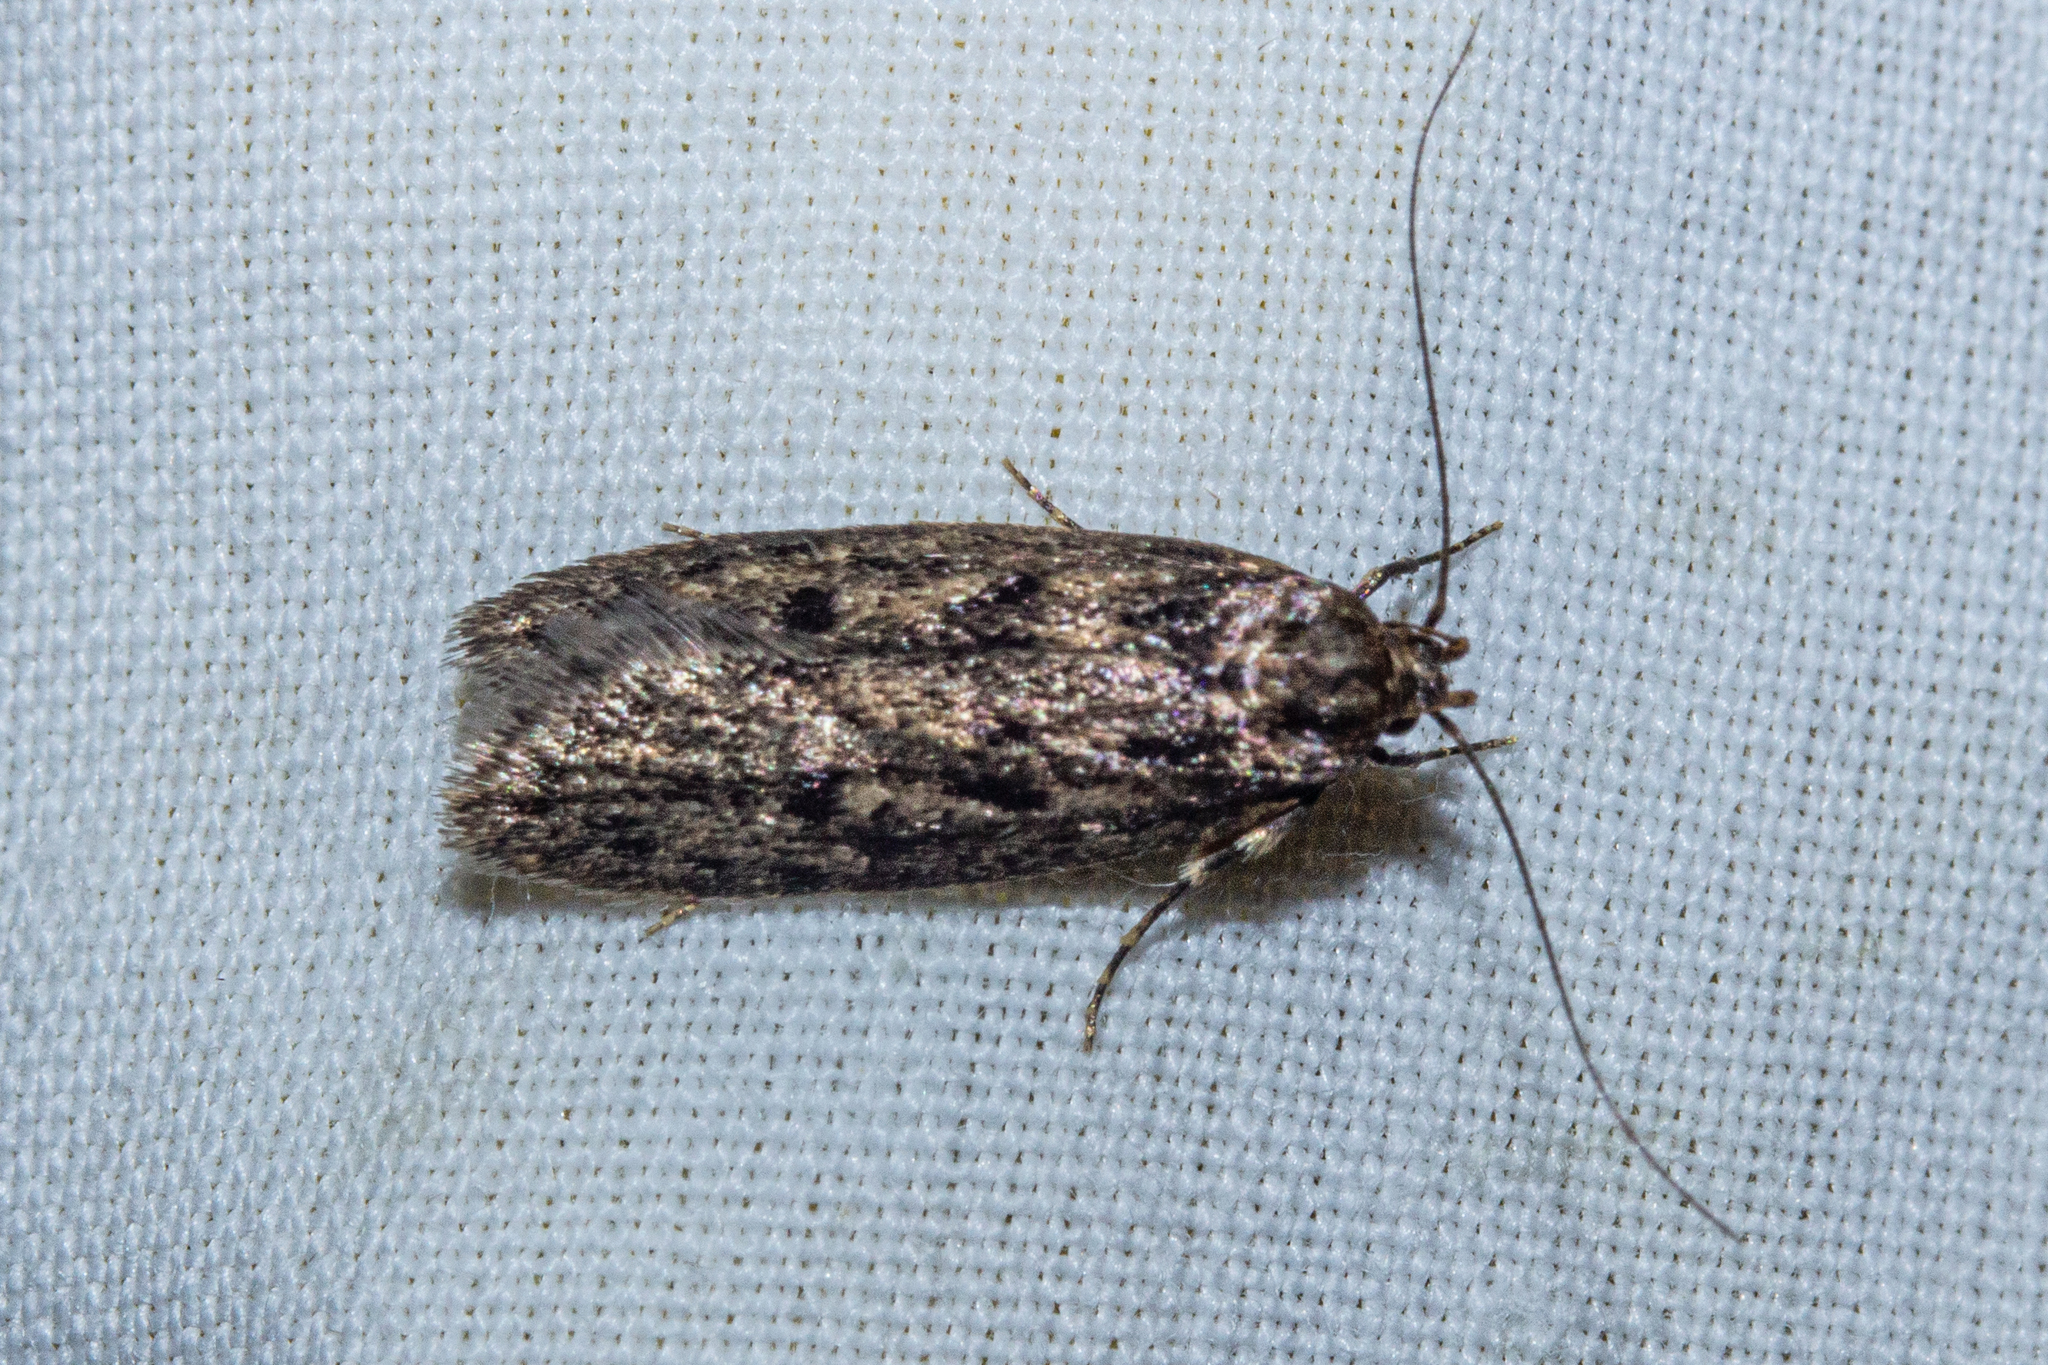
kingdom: Animalia
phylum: Arthropoda
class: Insecta
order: Lepidoptera
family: Oecophoridae
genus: Hofmannophila
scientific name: Hofmannophila pseudospretella
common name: Brown house moth
